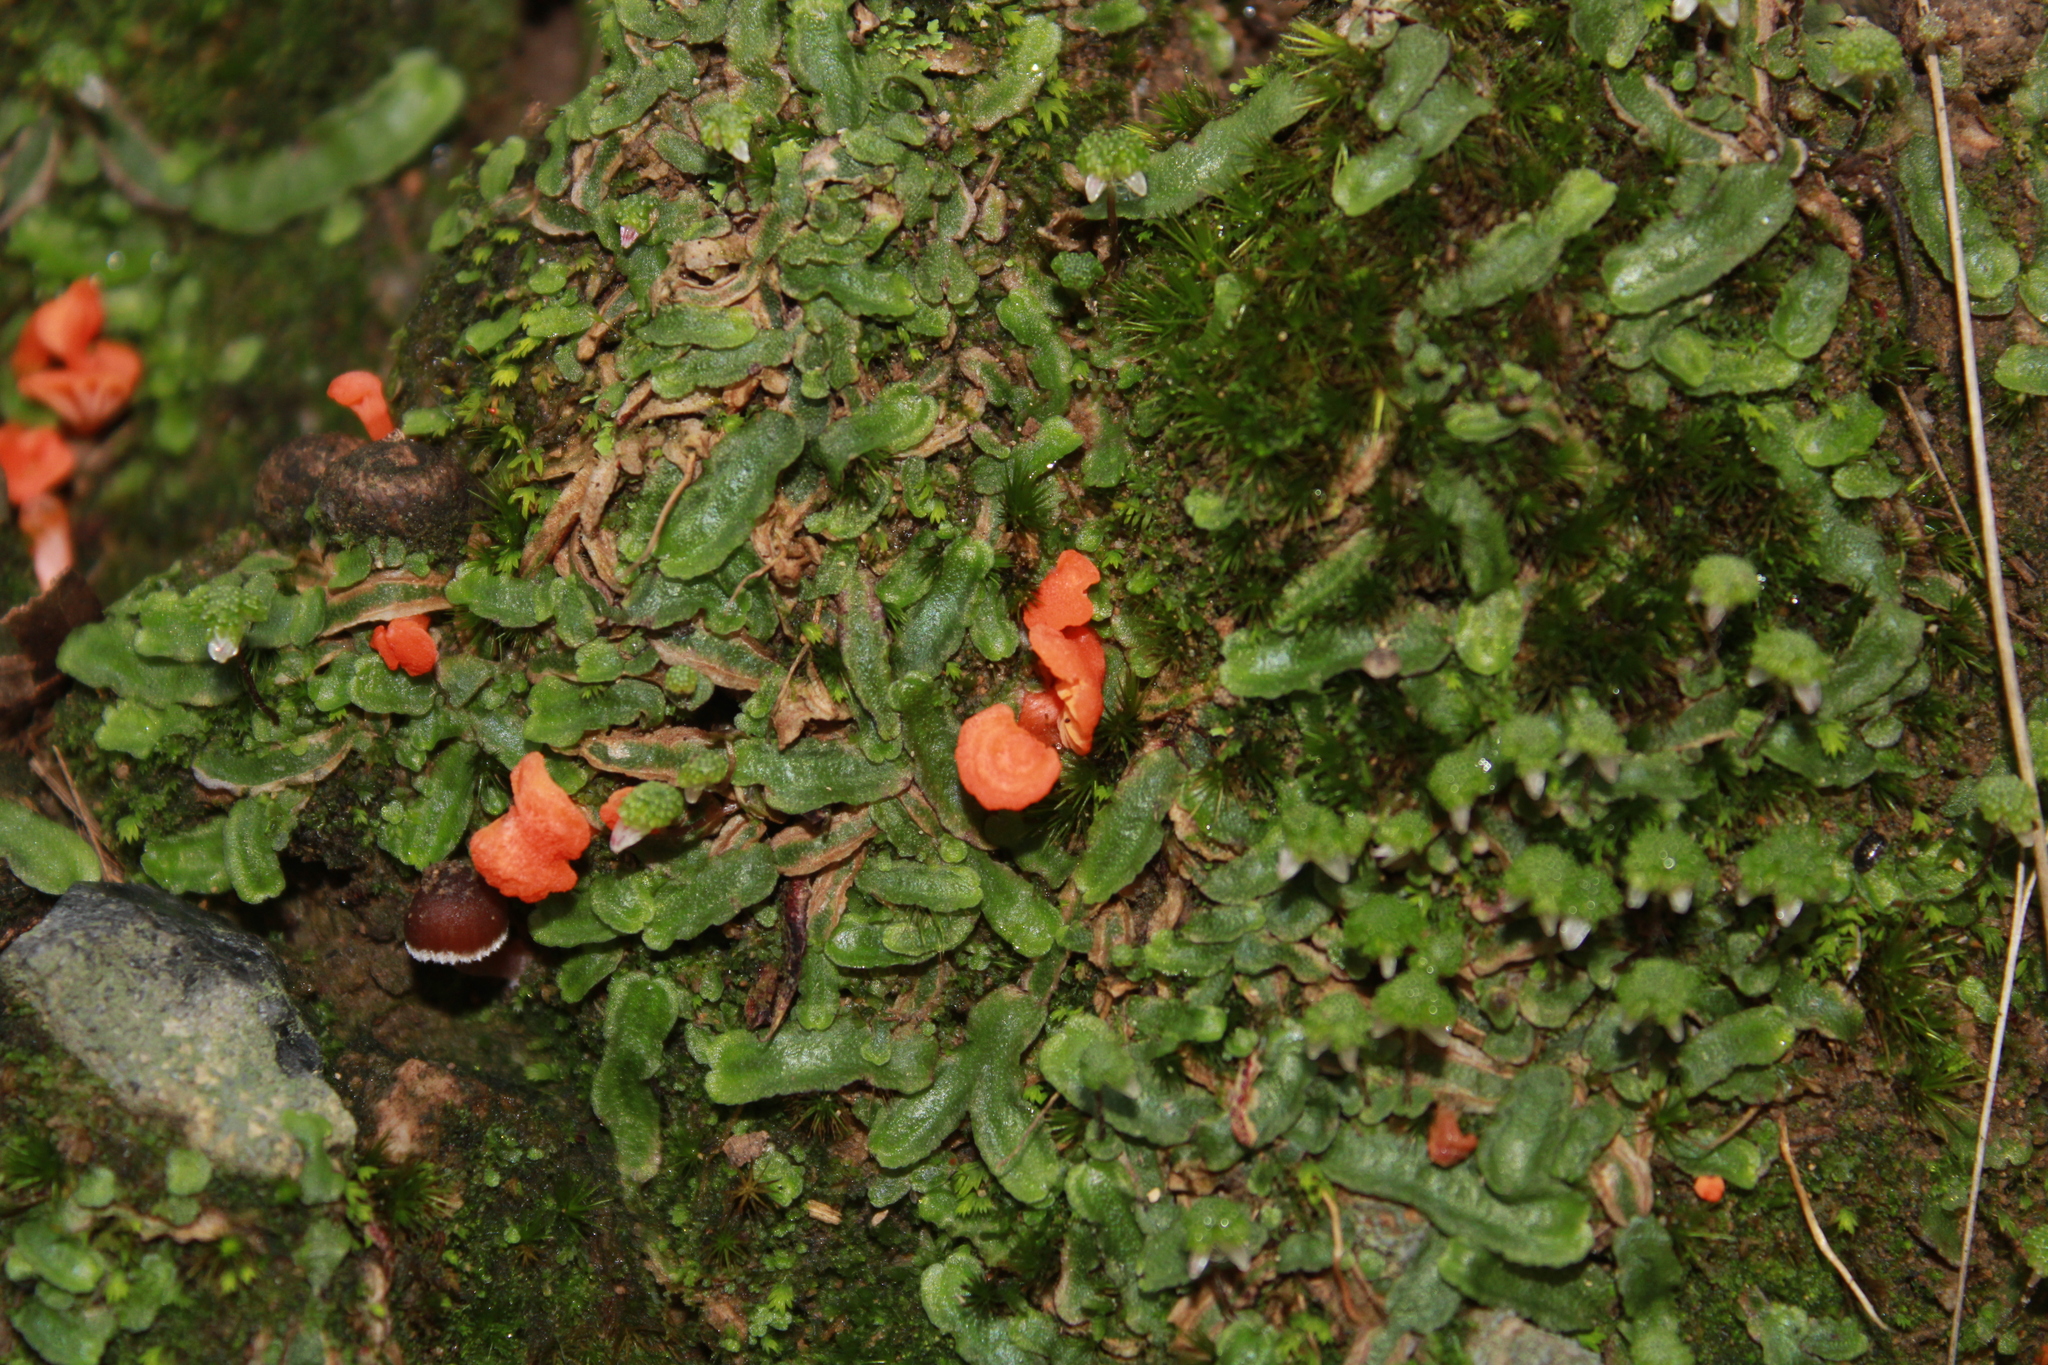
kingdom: Fungi
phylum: Basidiomycota
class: Agaricomycetes
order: Cantharellales
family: Hydnaceae
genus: Cantharellus
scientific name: Cantharellus cinnabarinus
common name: Cinnabar chanterelle
